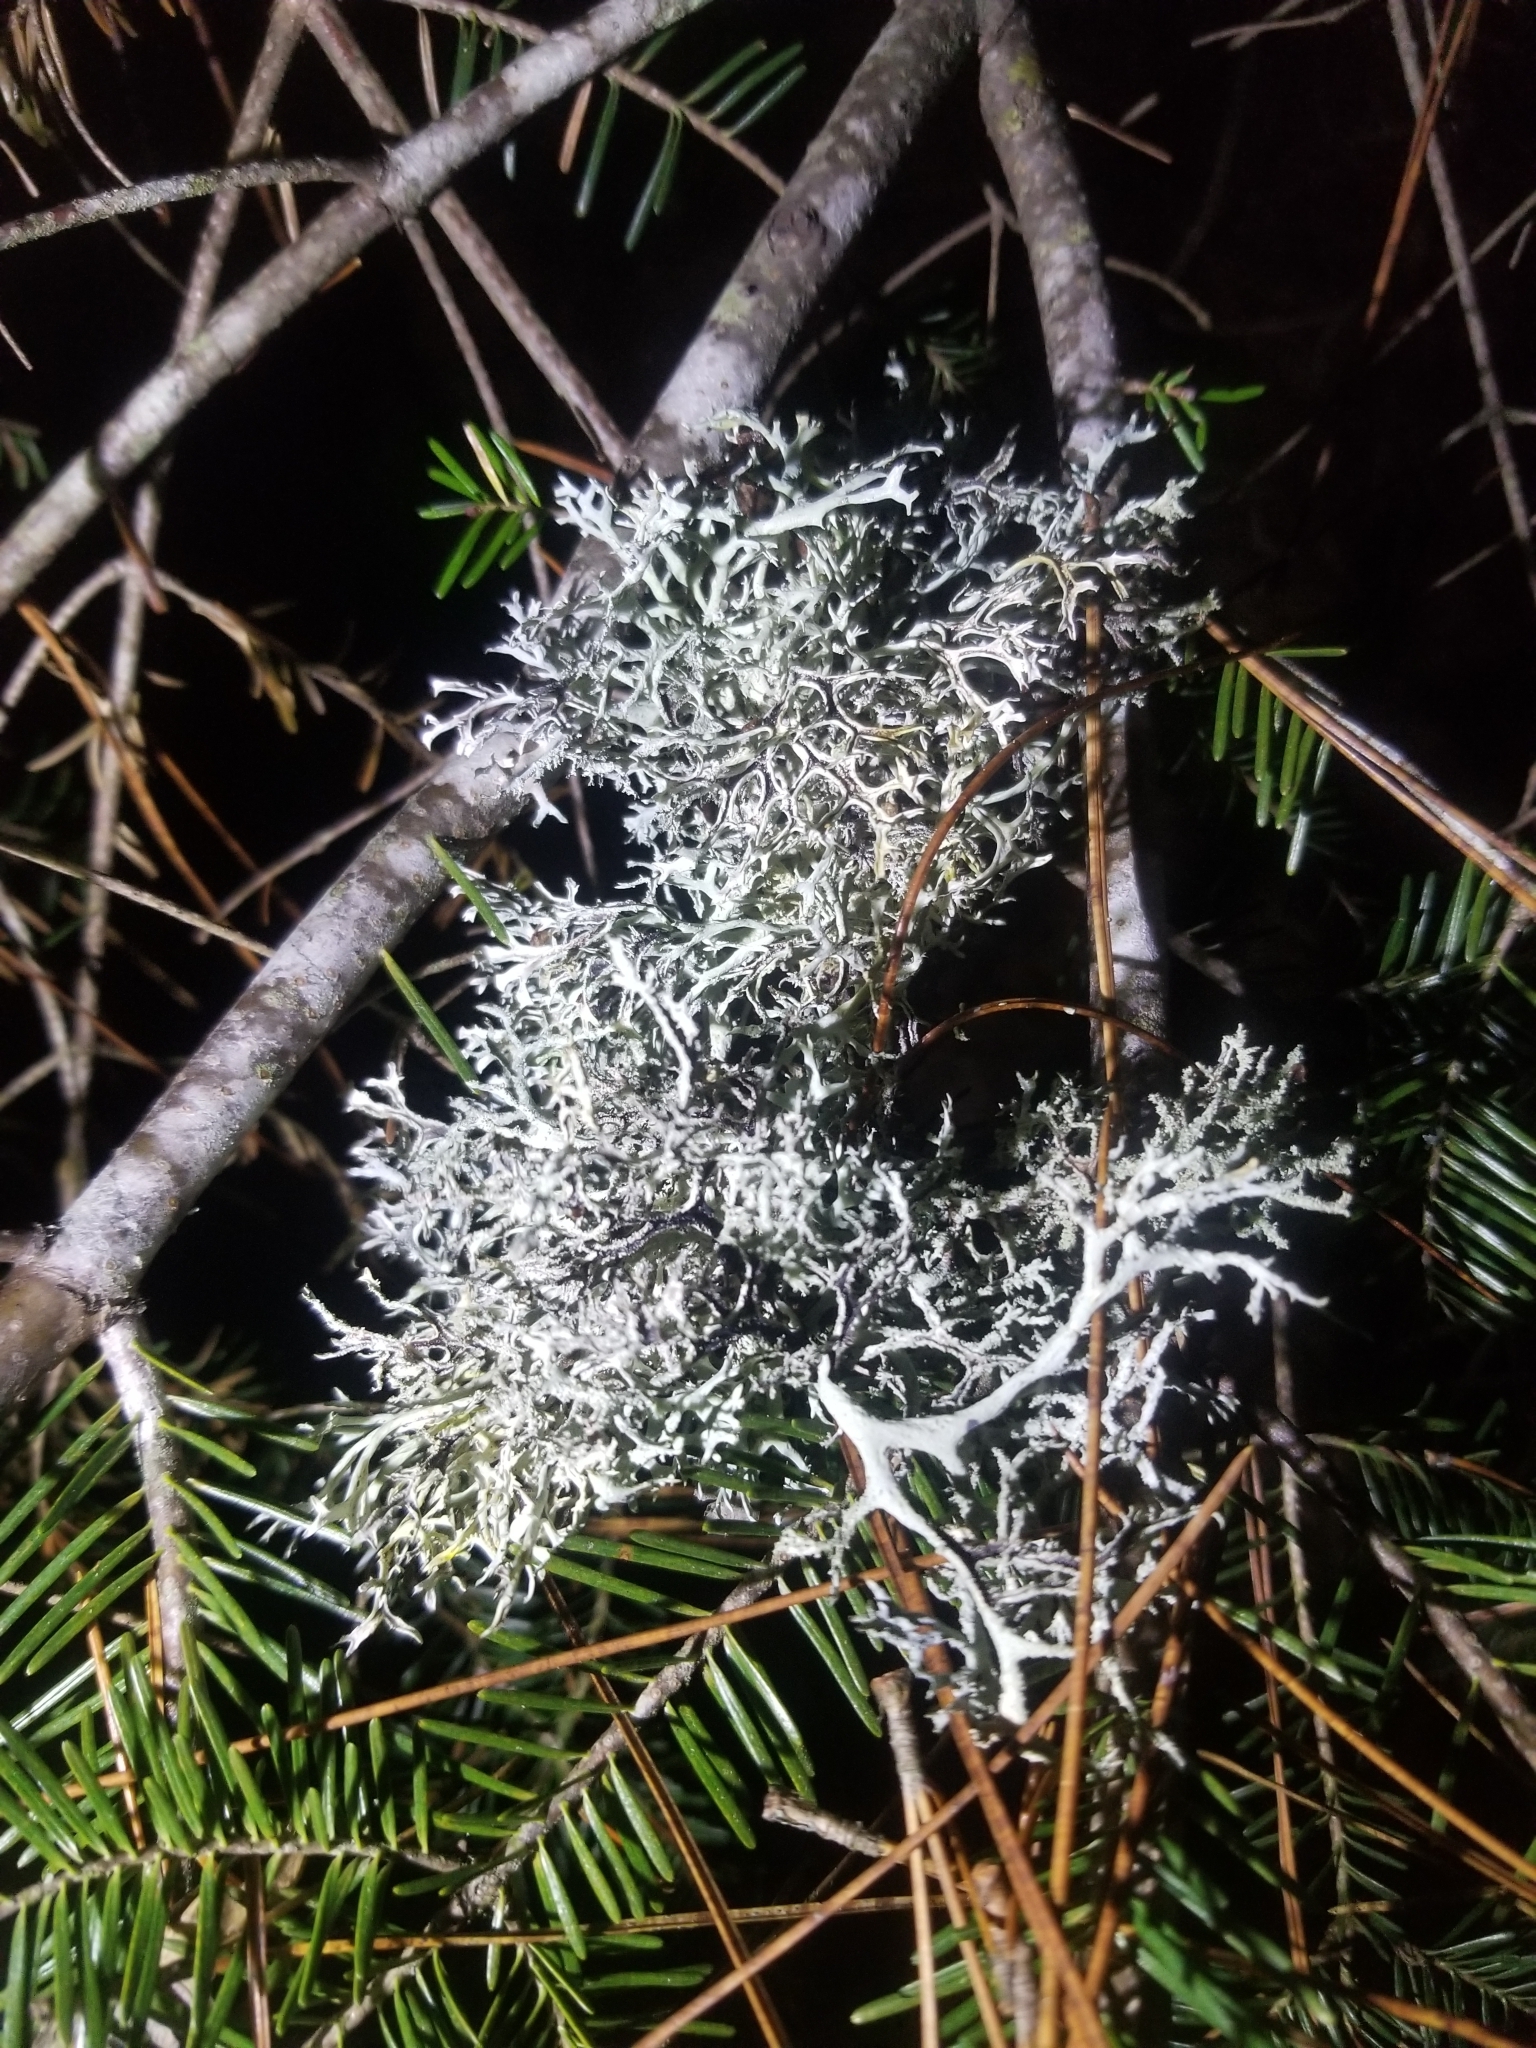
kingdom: Fungi
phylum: Ascomycota
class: Lecanoromycetes
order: Lecanorales
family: Parmeliaceae
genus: Pseudevernia
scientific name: Pseudevernia consocians
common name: Common antler lichen
